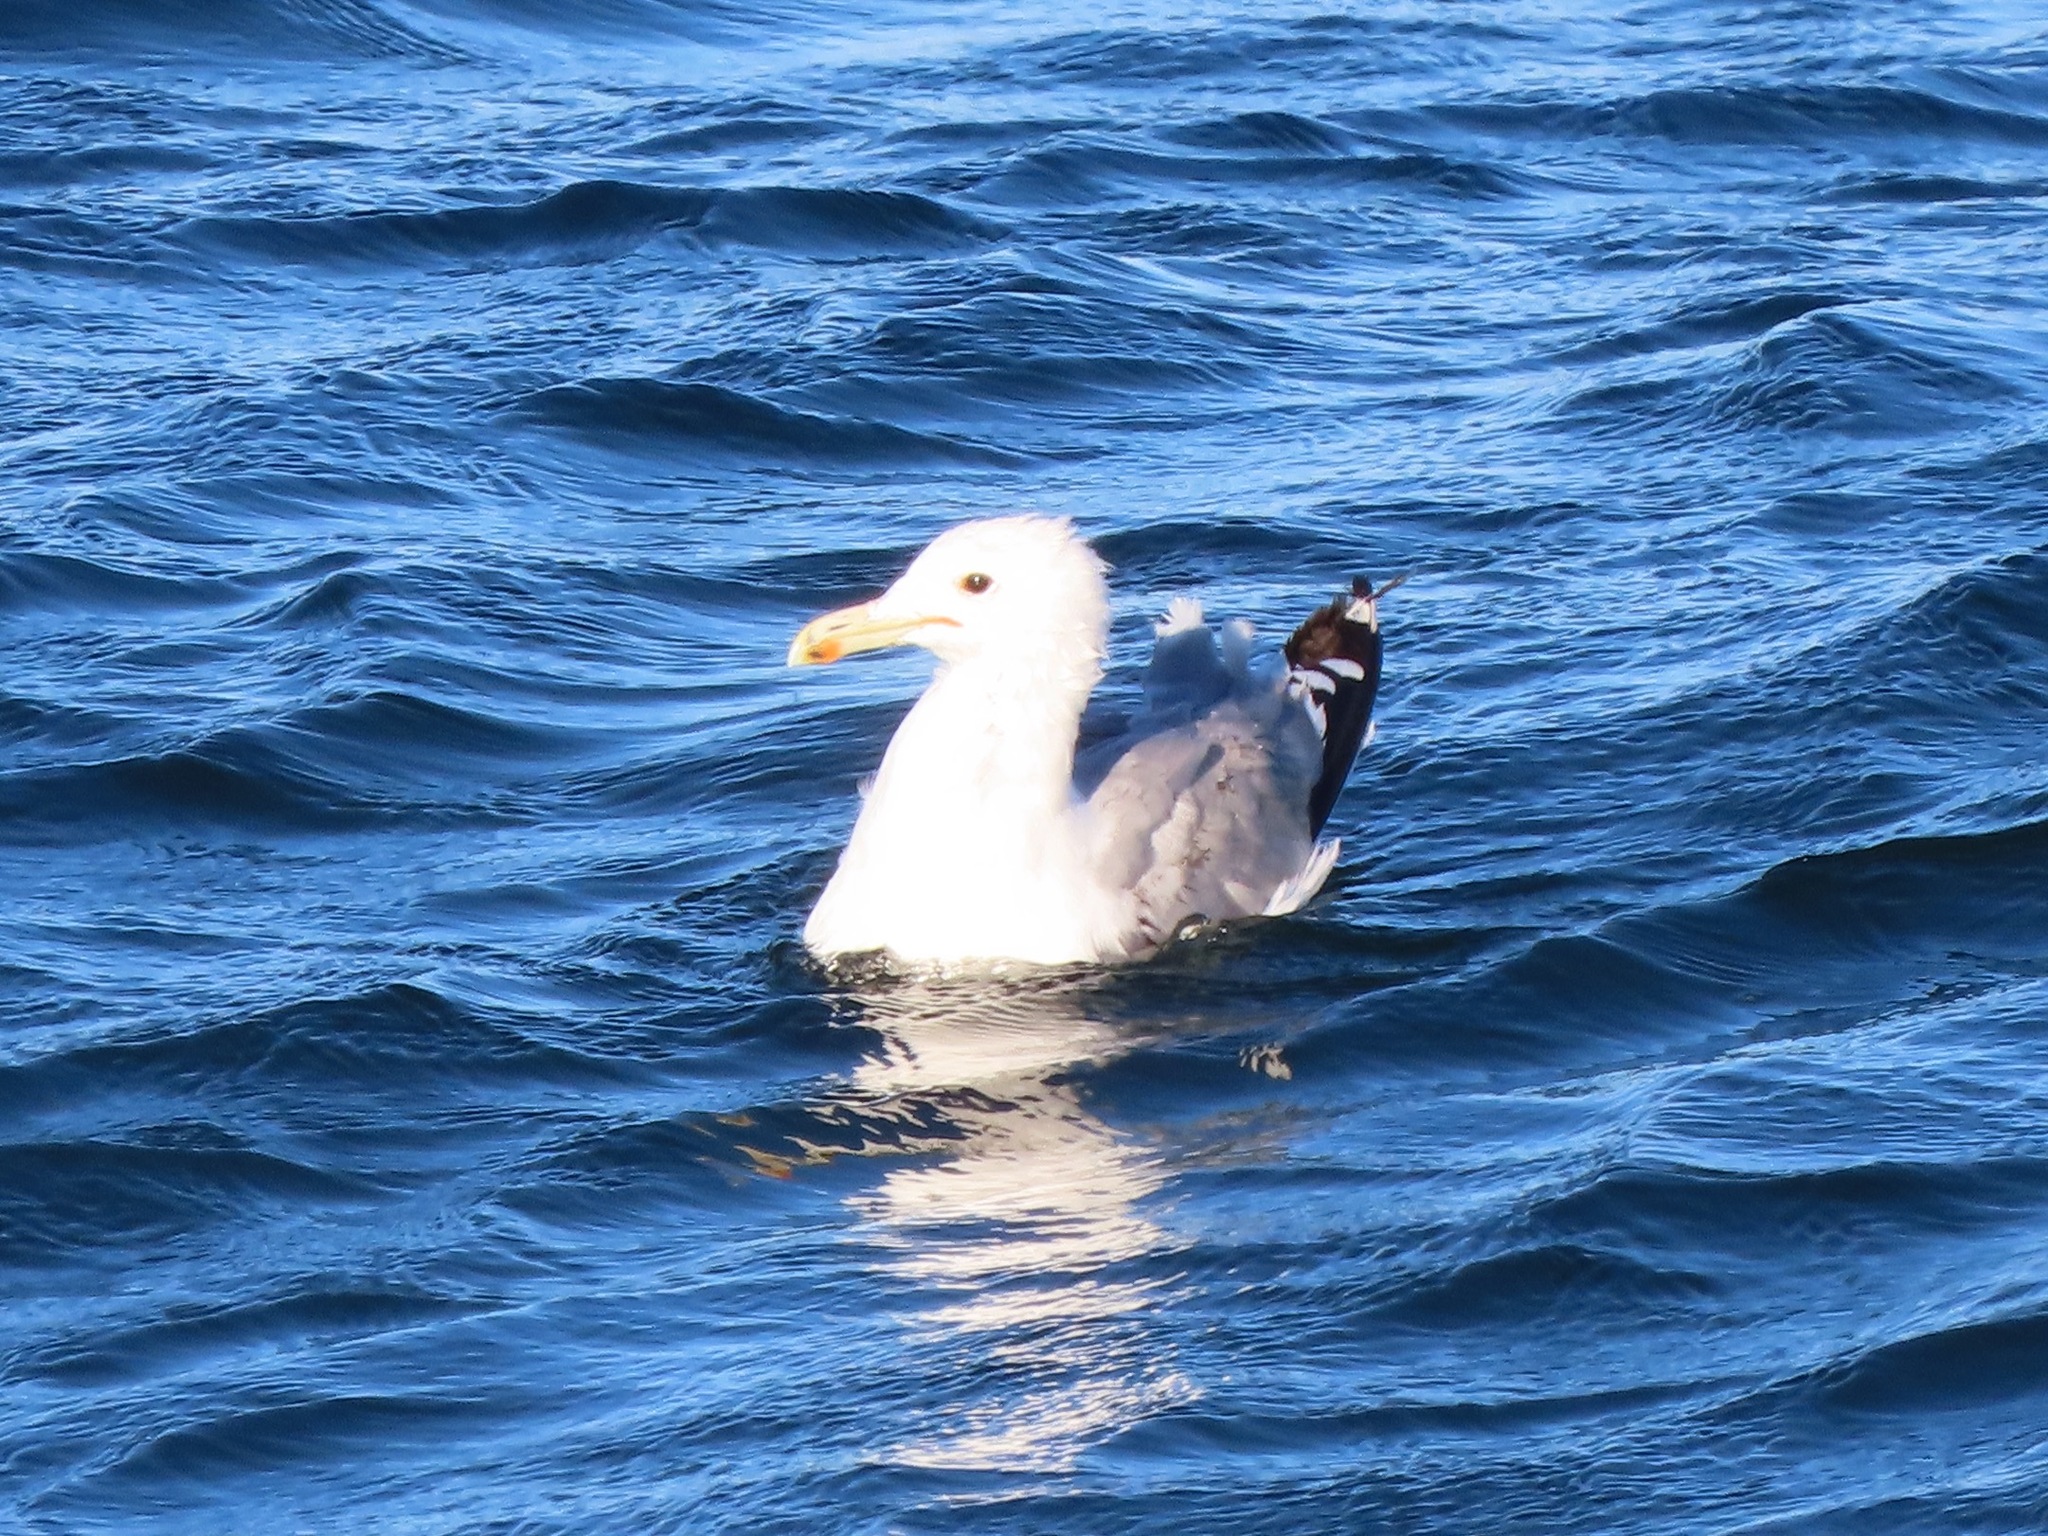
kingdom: Animalia
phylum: Chordata
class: Aves
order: Charadriiformes
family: Laridae
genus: Larus
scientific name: Larus californicus
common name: California gull
